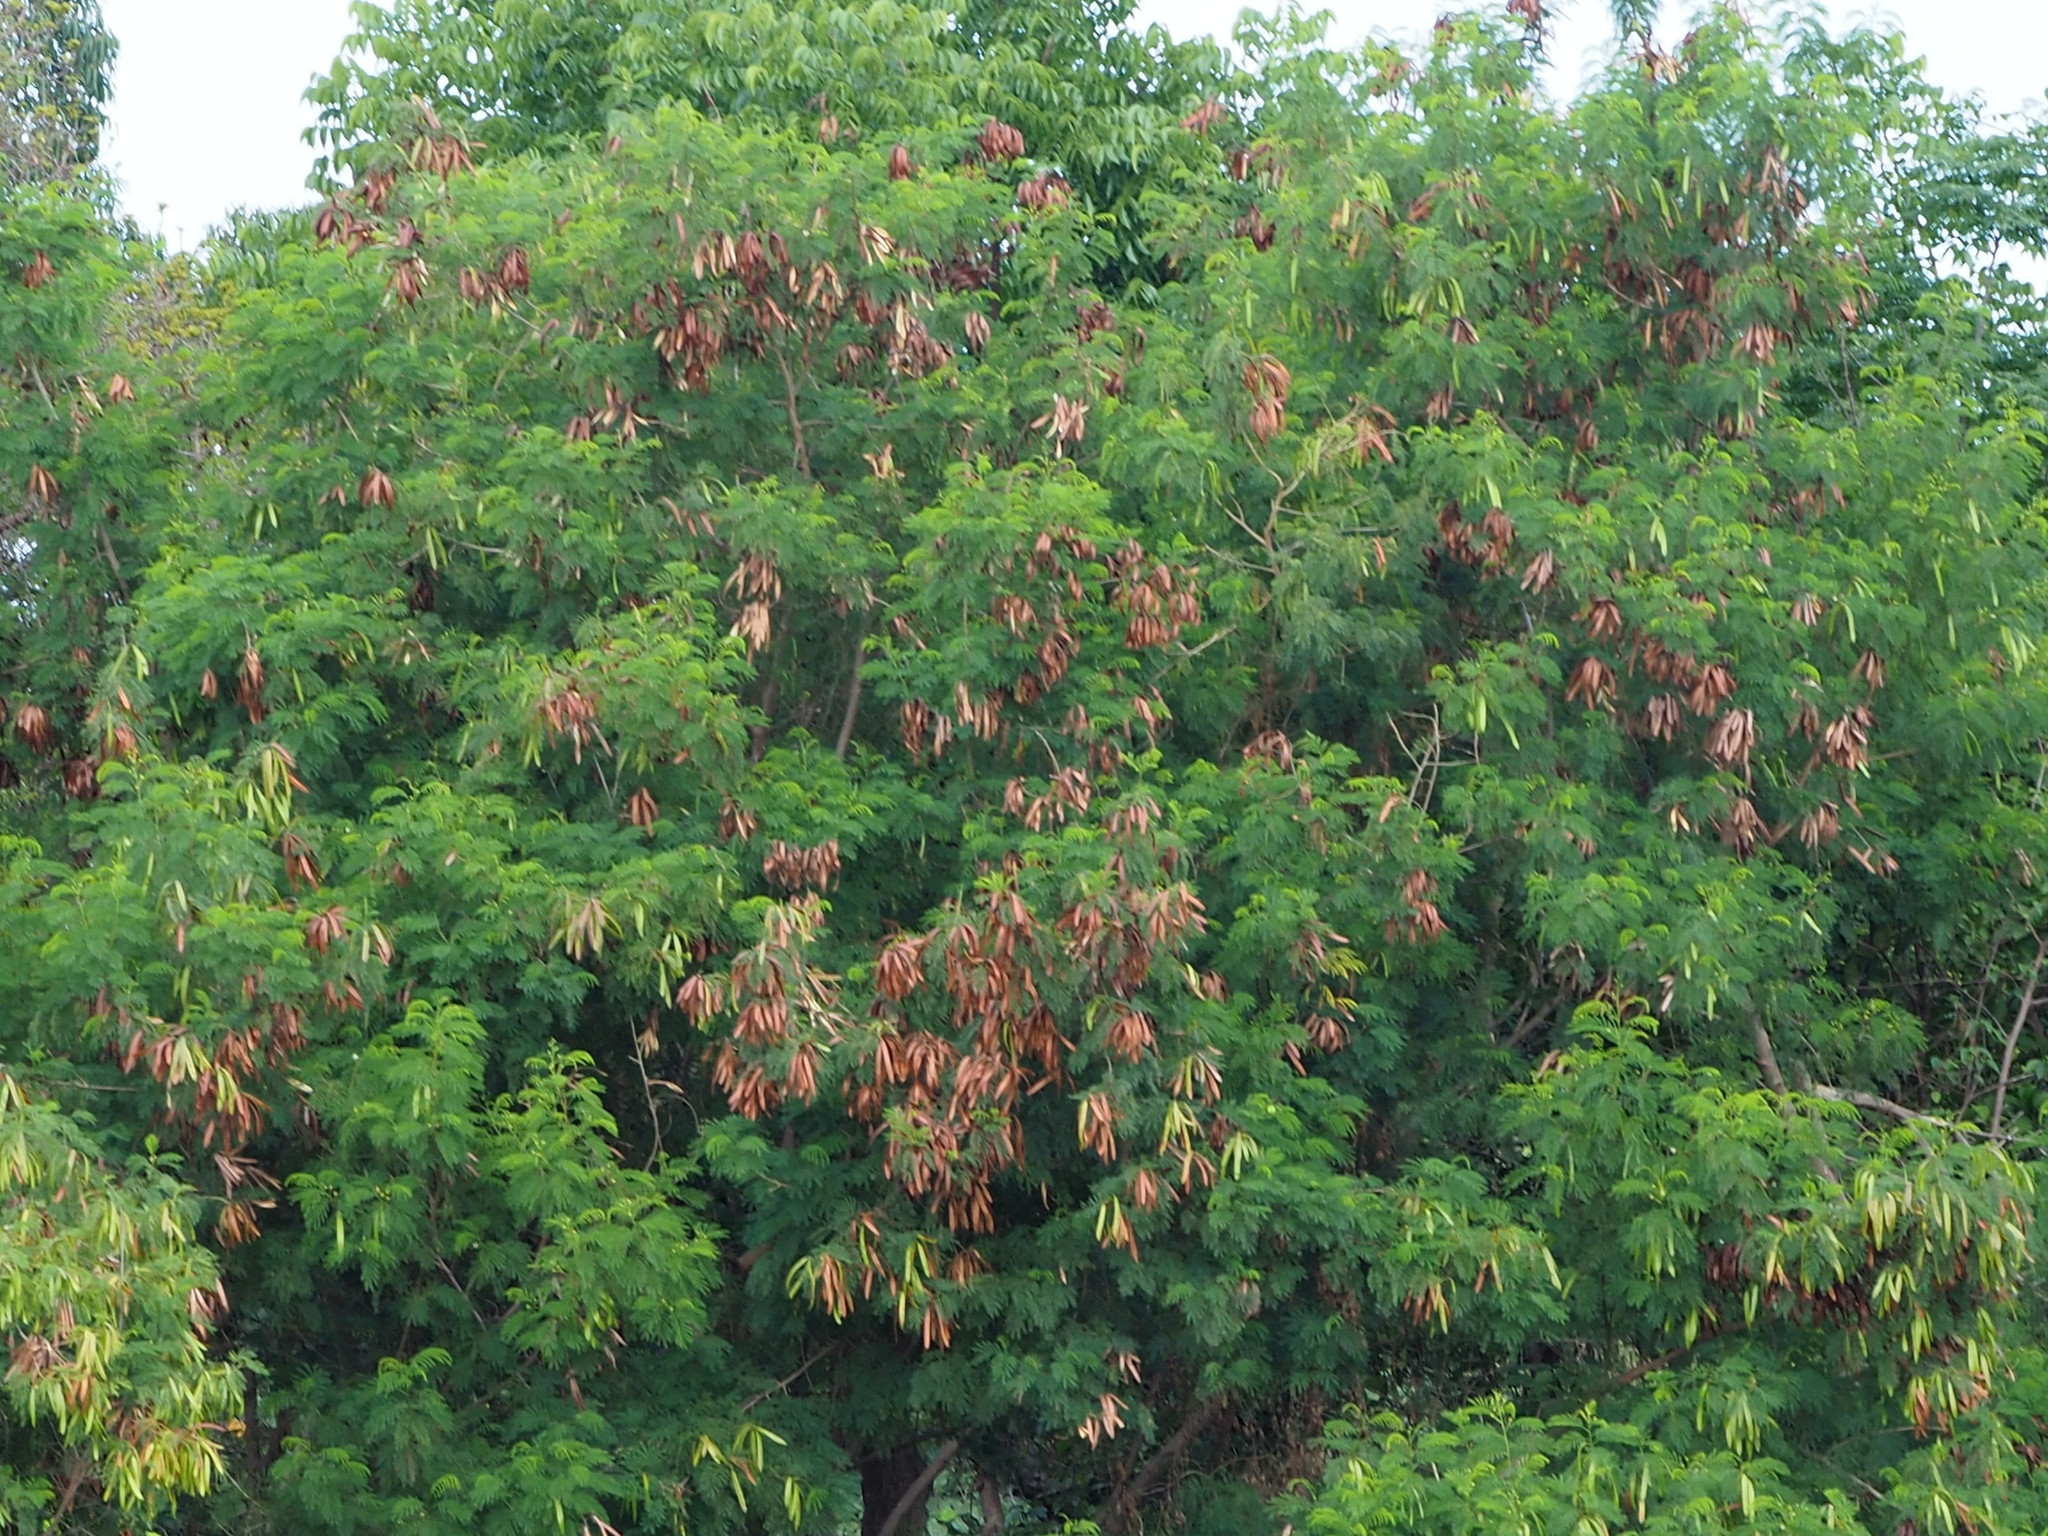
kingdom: Plantae
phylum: Tracheophyta
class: Magnoliopsida
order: Fabales
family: Fabaceae
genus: Leucaena
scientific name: Leucaena leucocephala
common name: White leadtree
